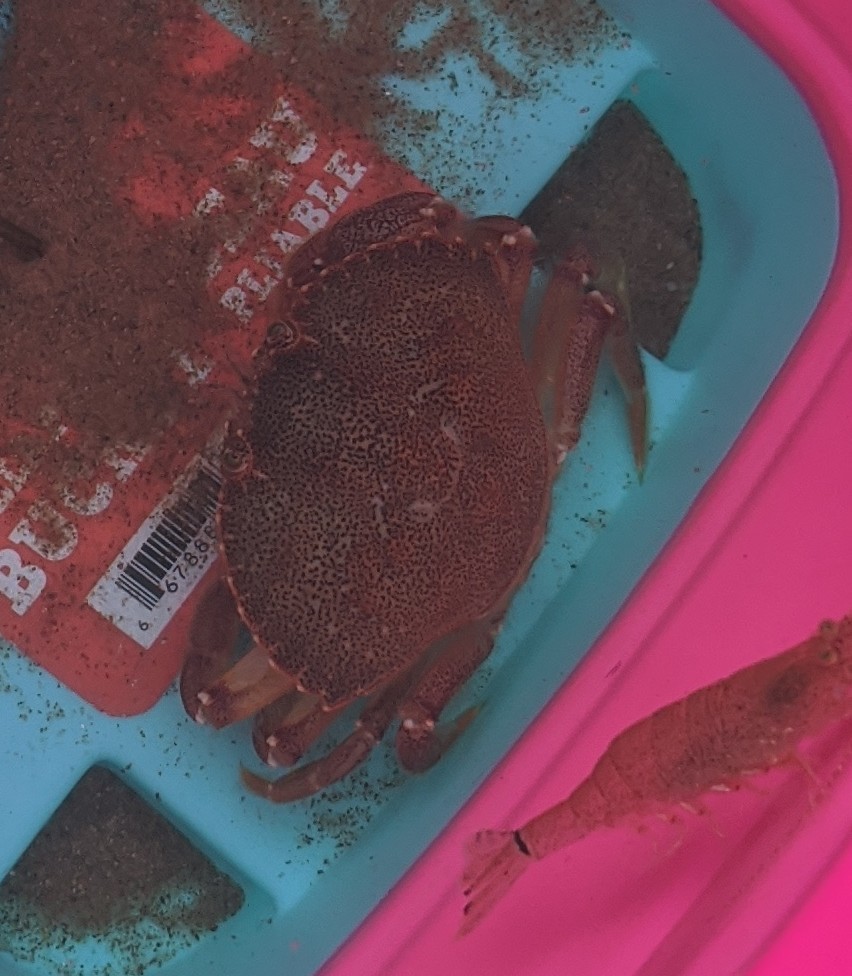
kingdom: Animalia
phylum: Arthropoda
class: Malacostraca
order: Decapoda
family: Cancridae
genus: Cancer
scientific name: Cancer irroratus
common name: Atlantic rock crab
